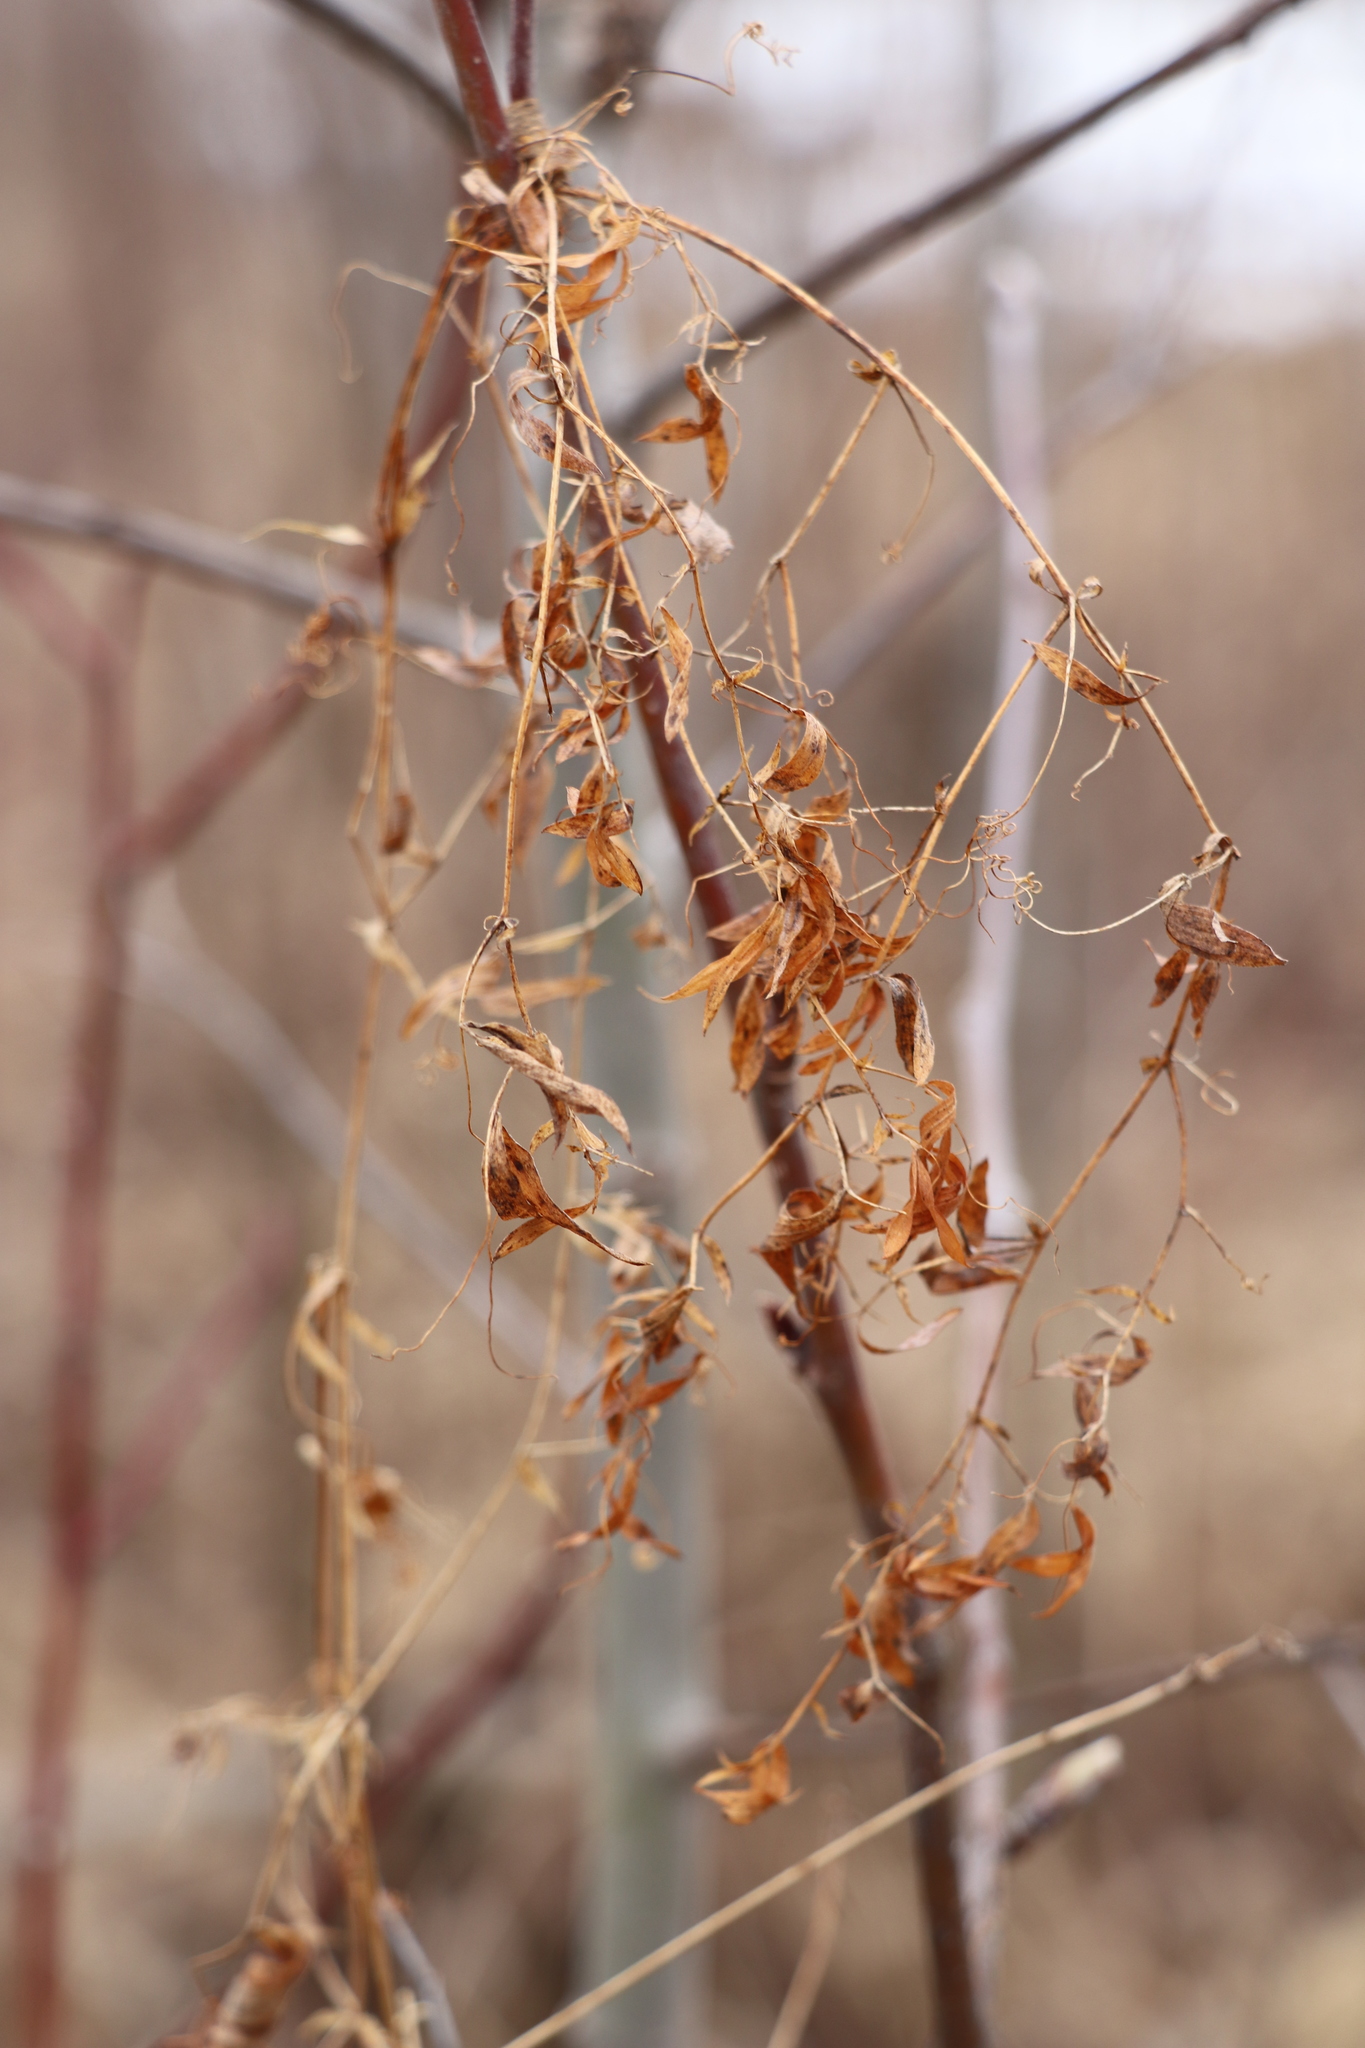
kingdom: Plantae
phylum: Tracheophyta
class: Magnoliopsida
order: Fabales
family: Fabaceae
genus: Lathyrus
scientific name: Lathyrus pratensis
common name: Meadow vetchling
